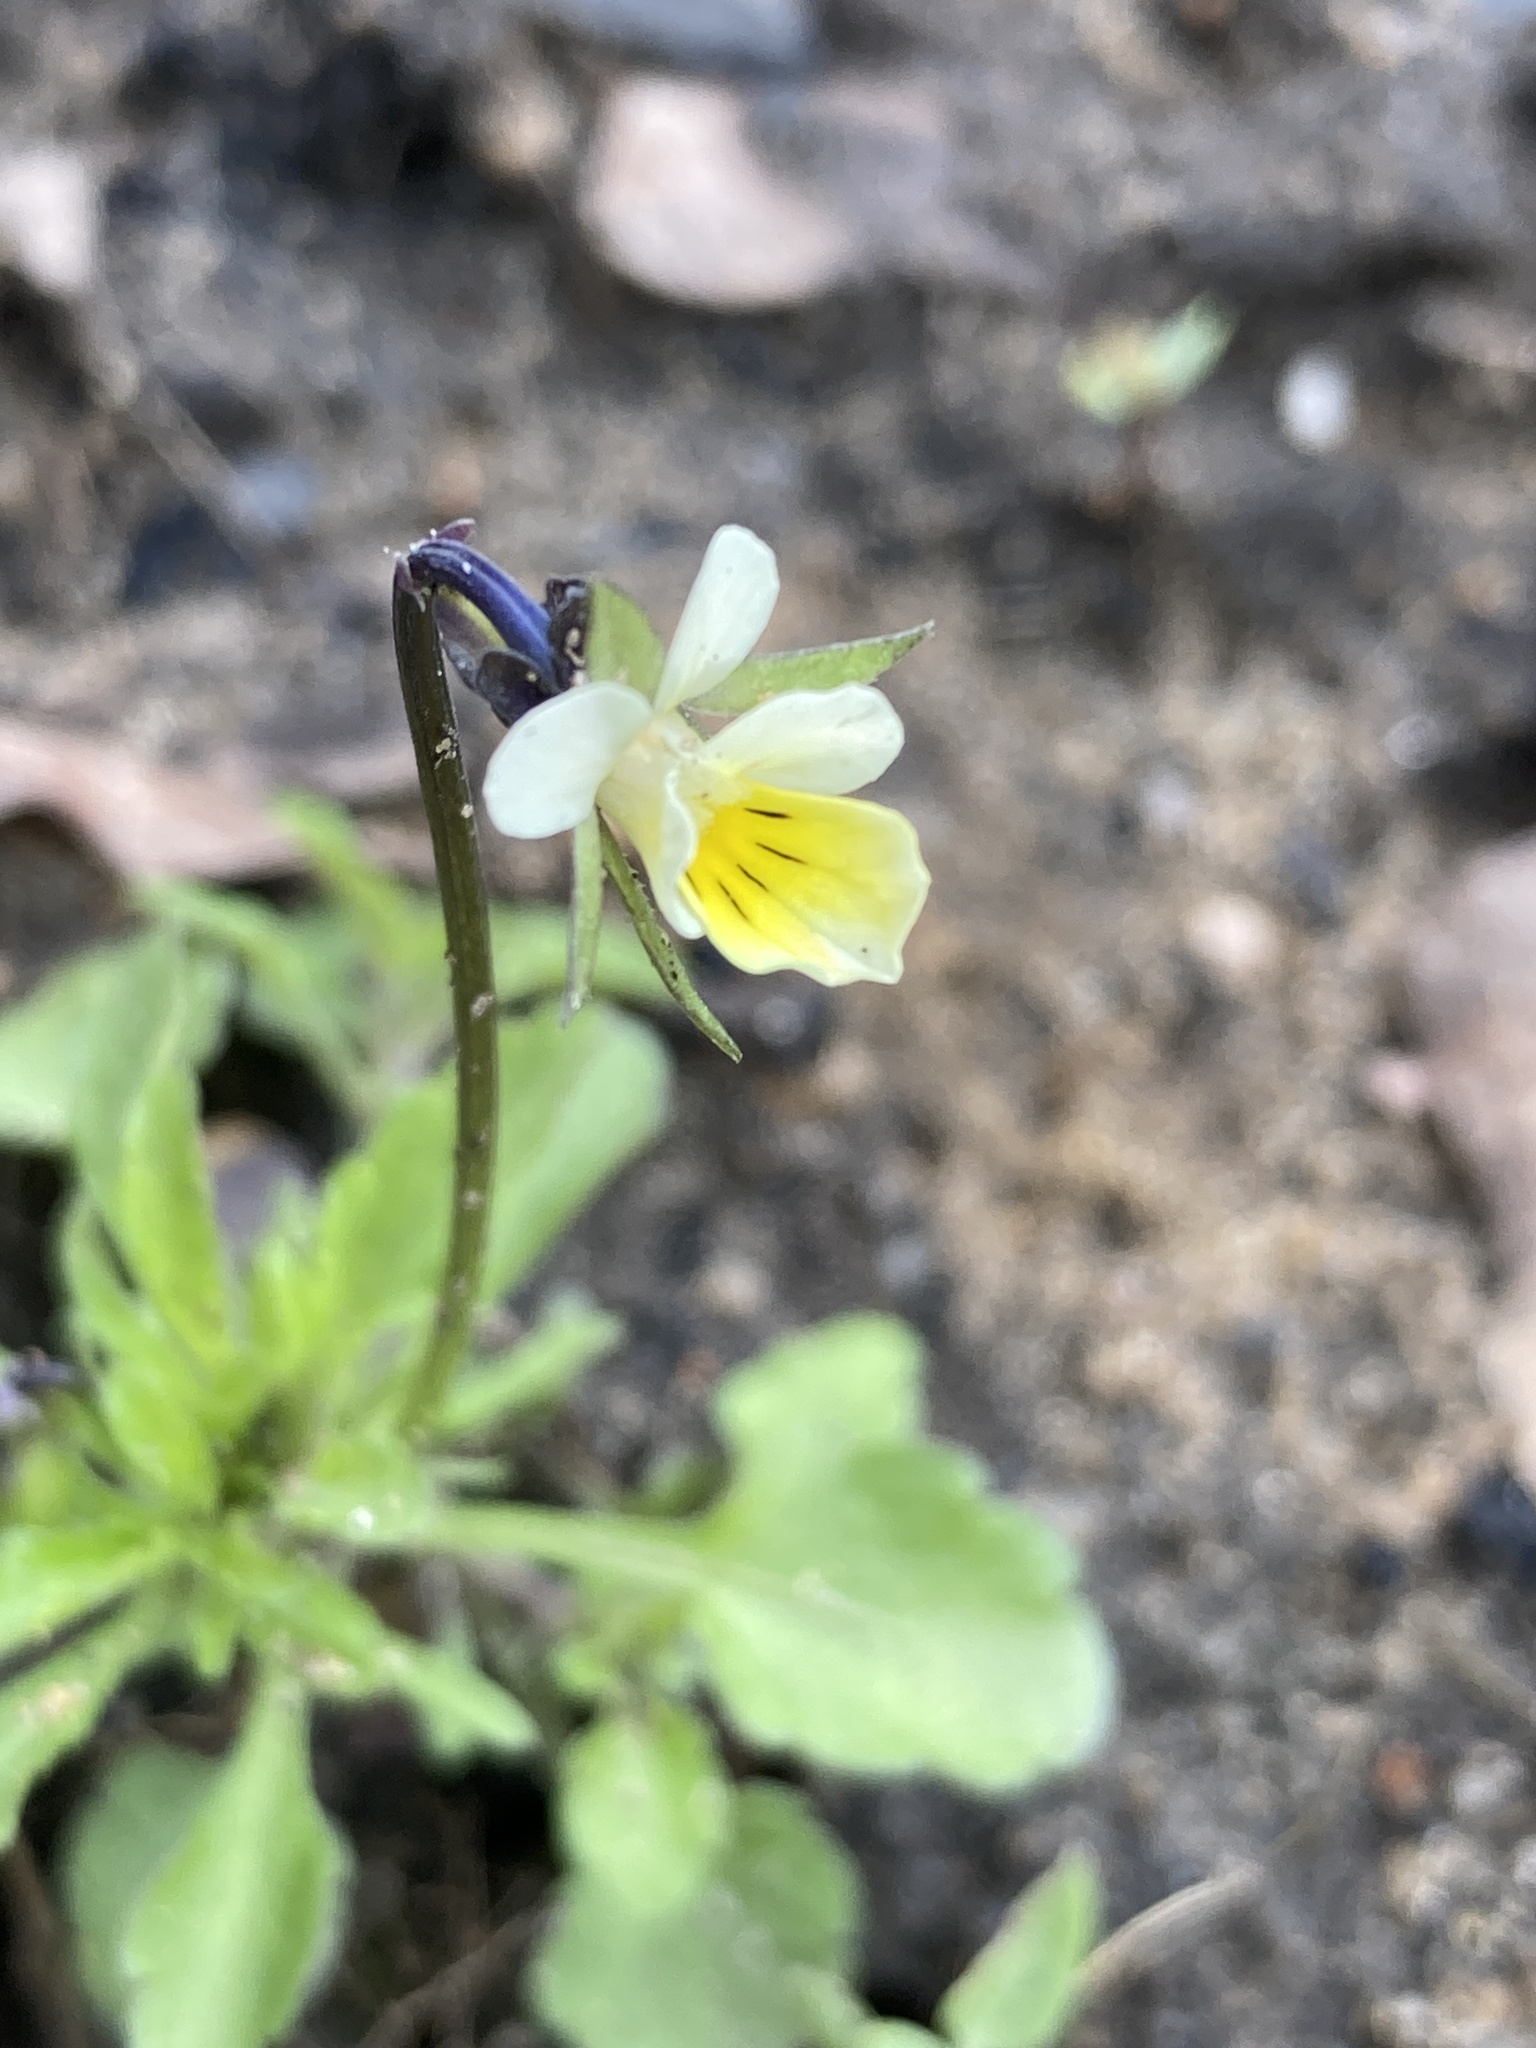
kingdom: Plantae
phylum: Tracheophyta
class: Magnoliopsida
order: Malpighiales
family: Violaceae
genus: Viola
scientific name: Viola arvensis
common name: Field pansy
